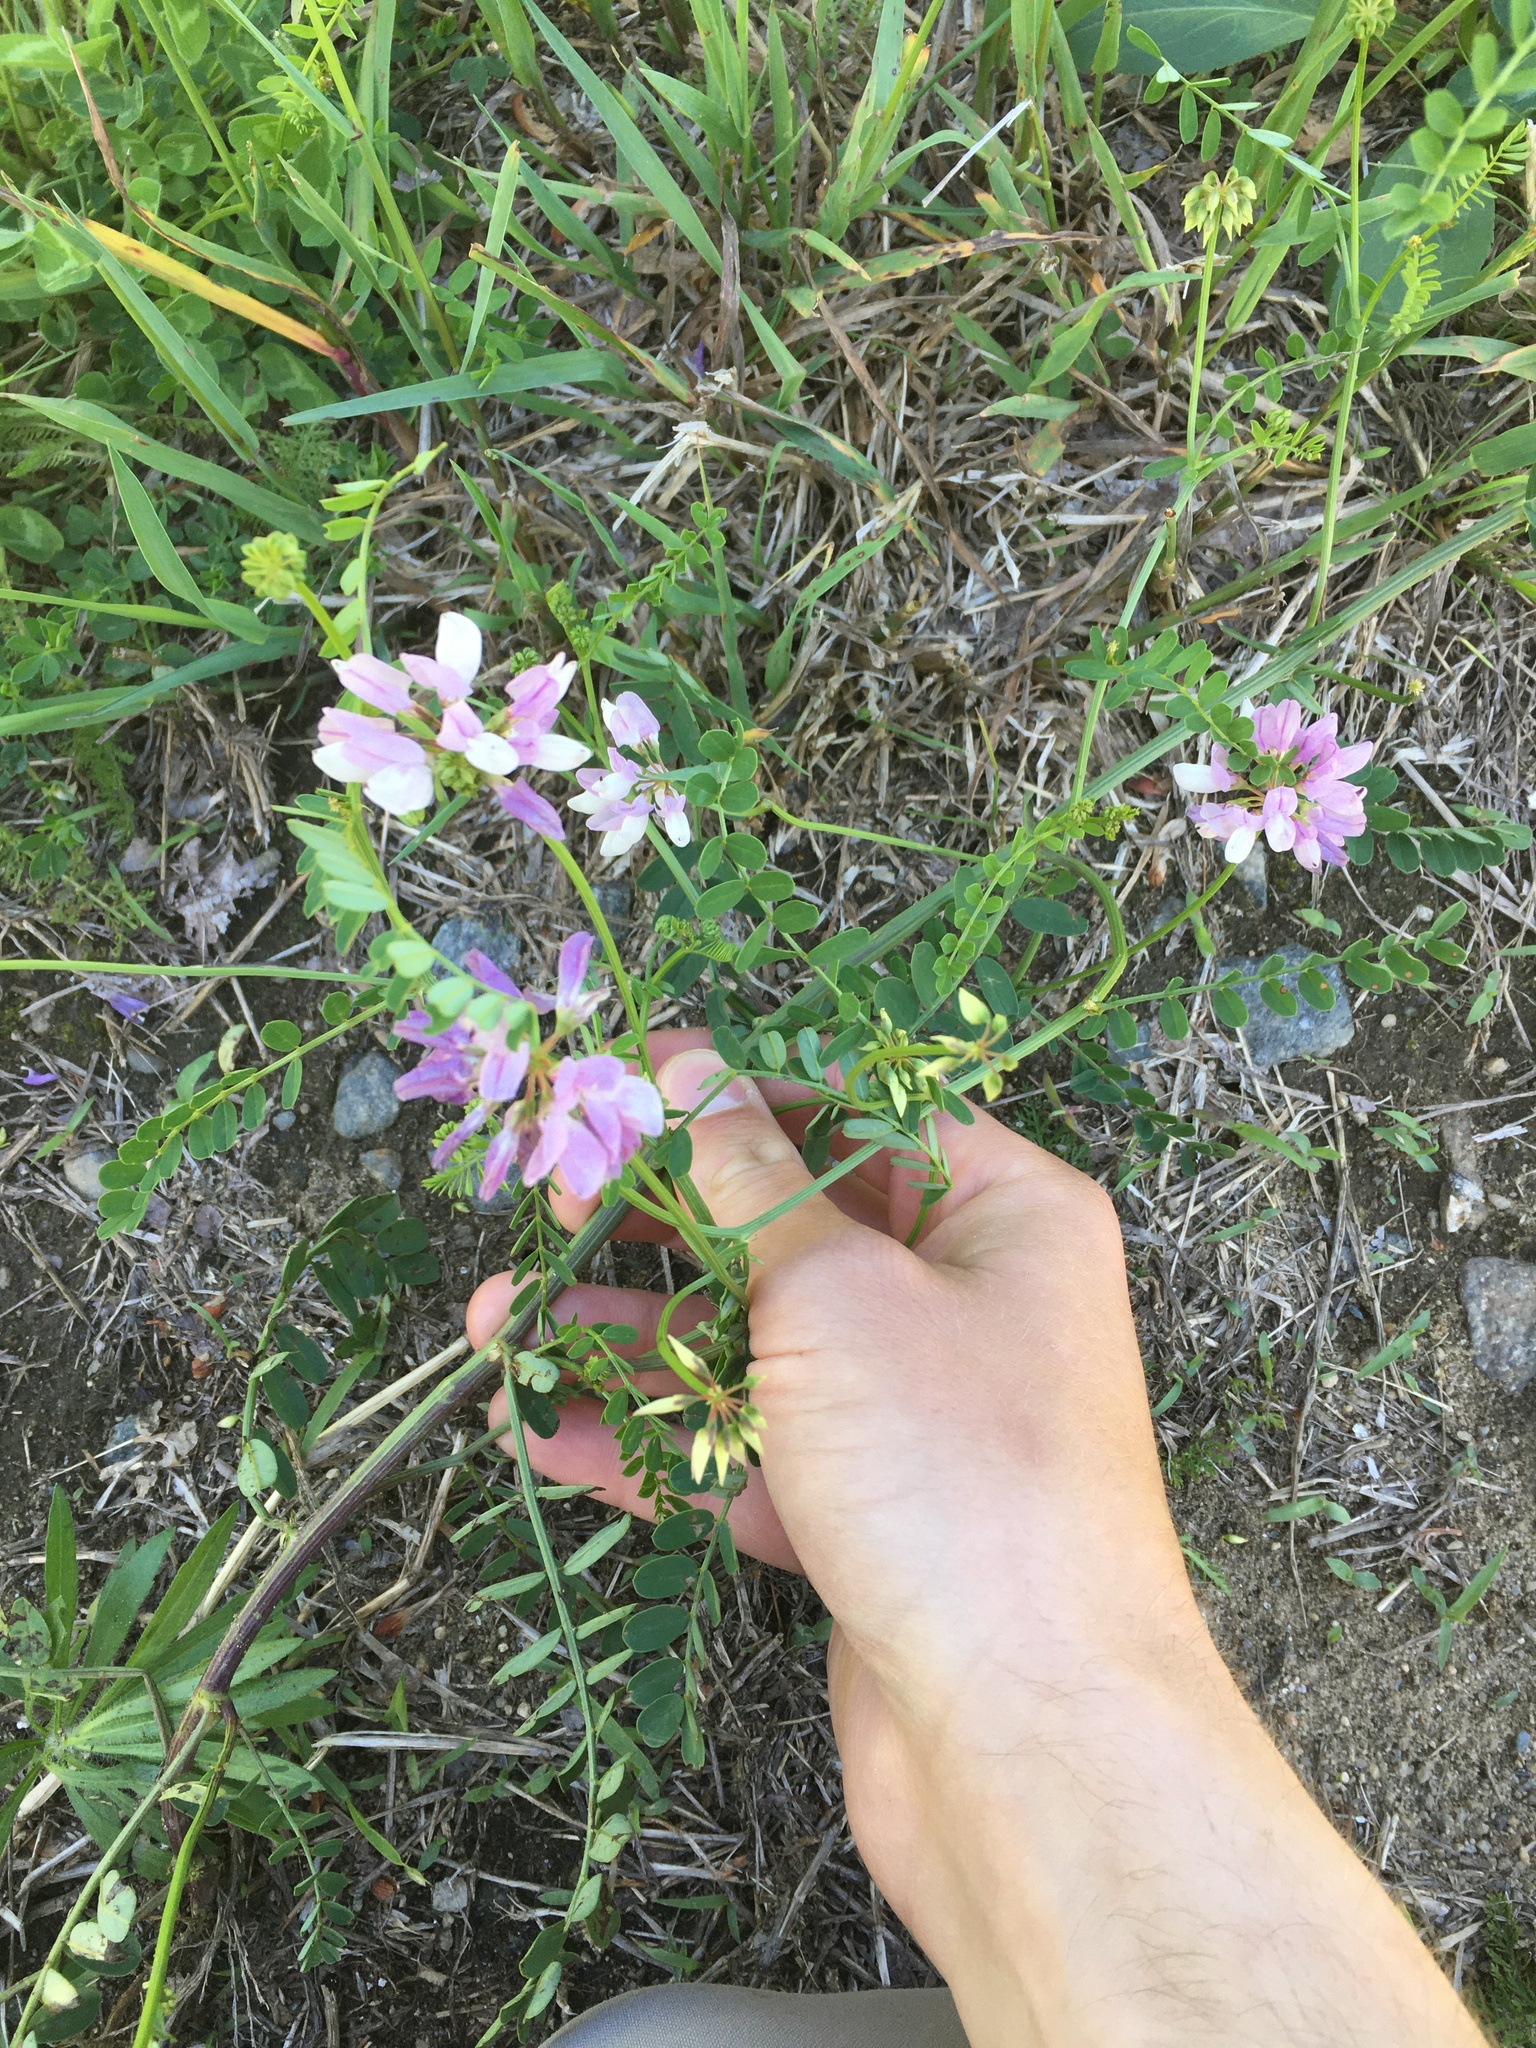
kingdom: Plantae
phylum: Tracheophyta
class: Magnoliopsida
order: Fabales
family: Fabaceae
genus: Coronilla
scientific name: Coronilla varia
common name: Crownvetch
